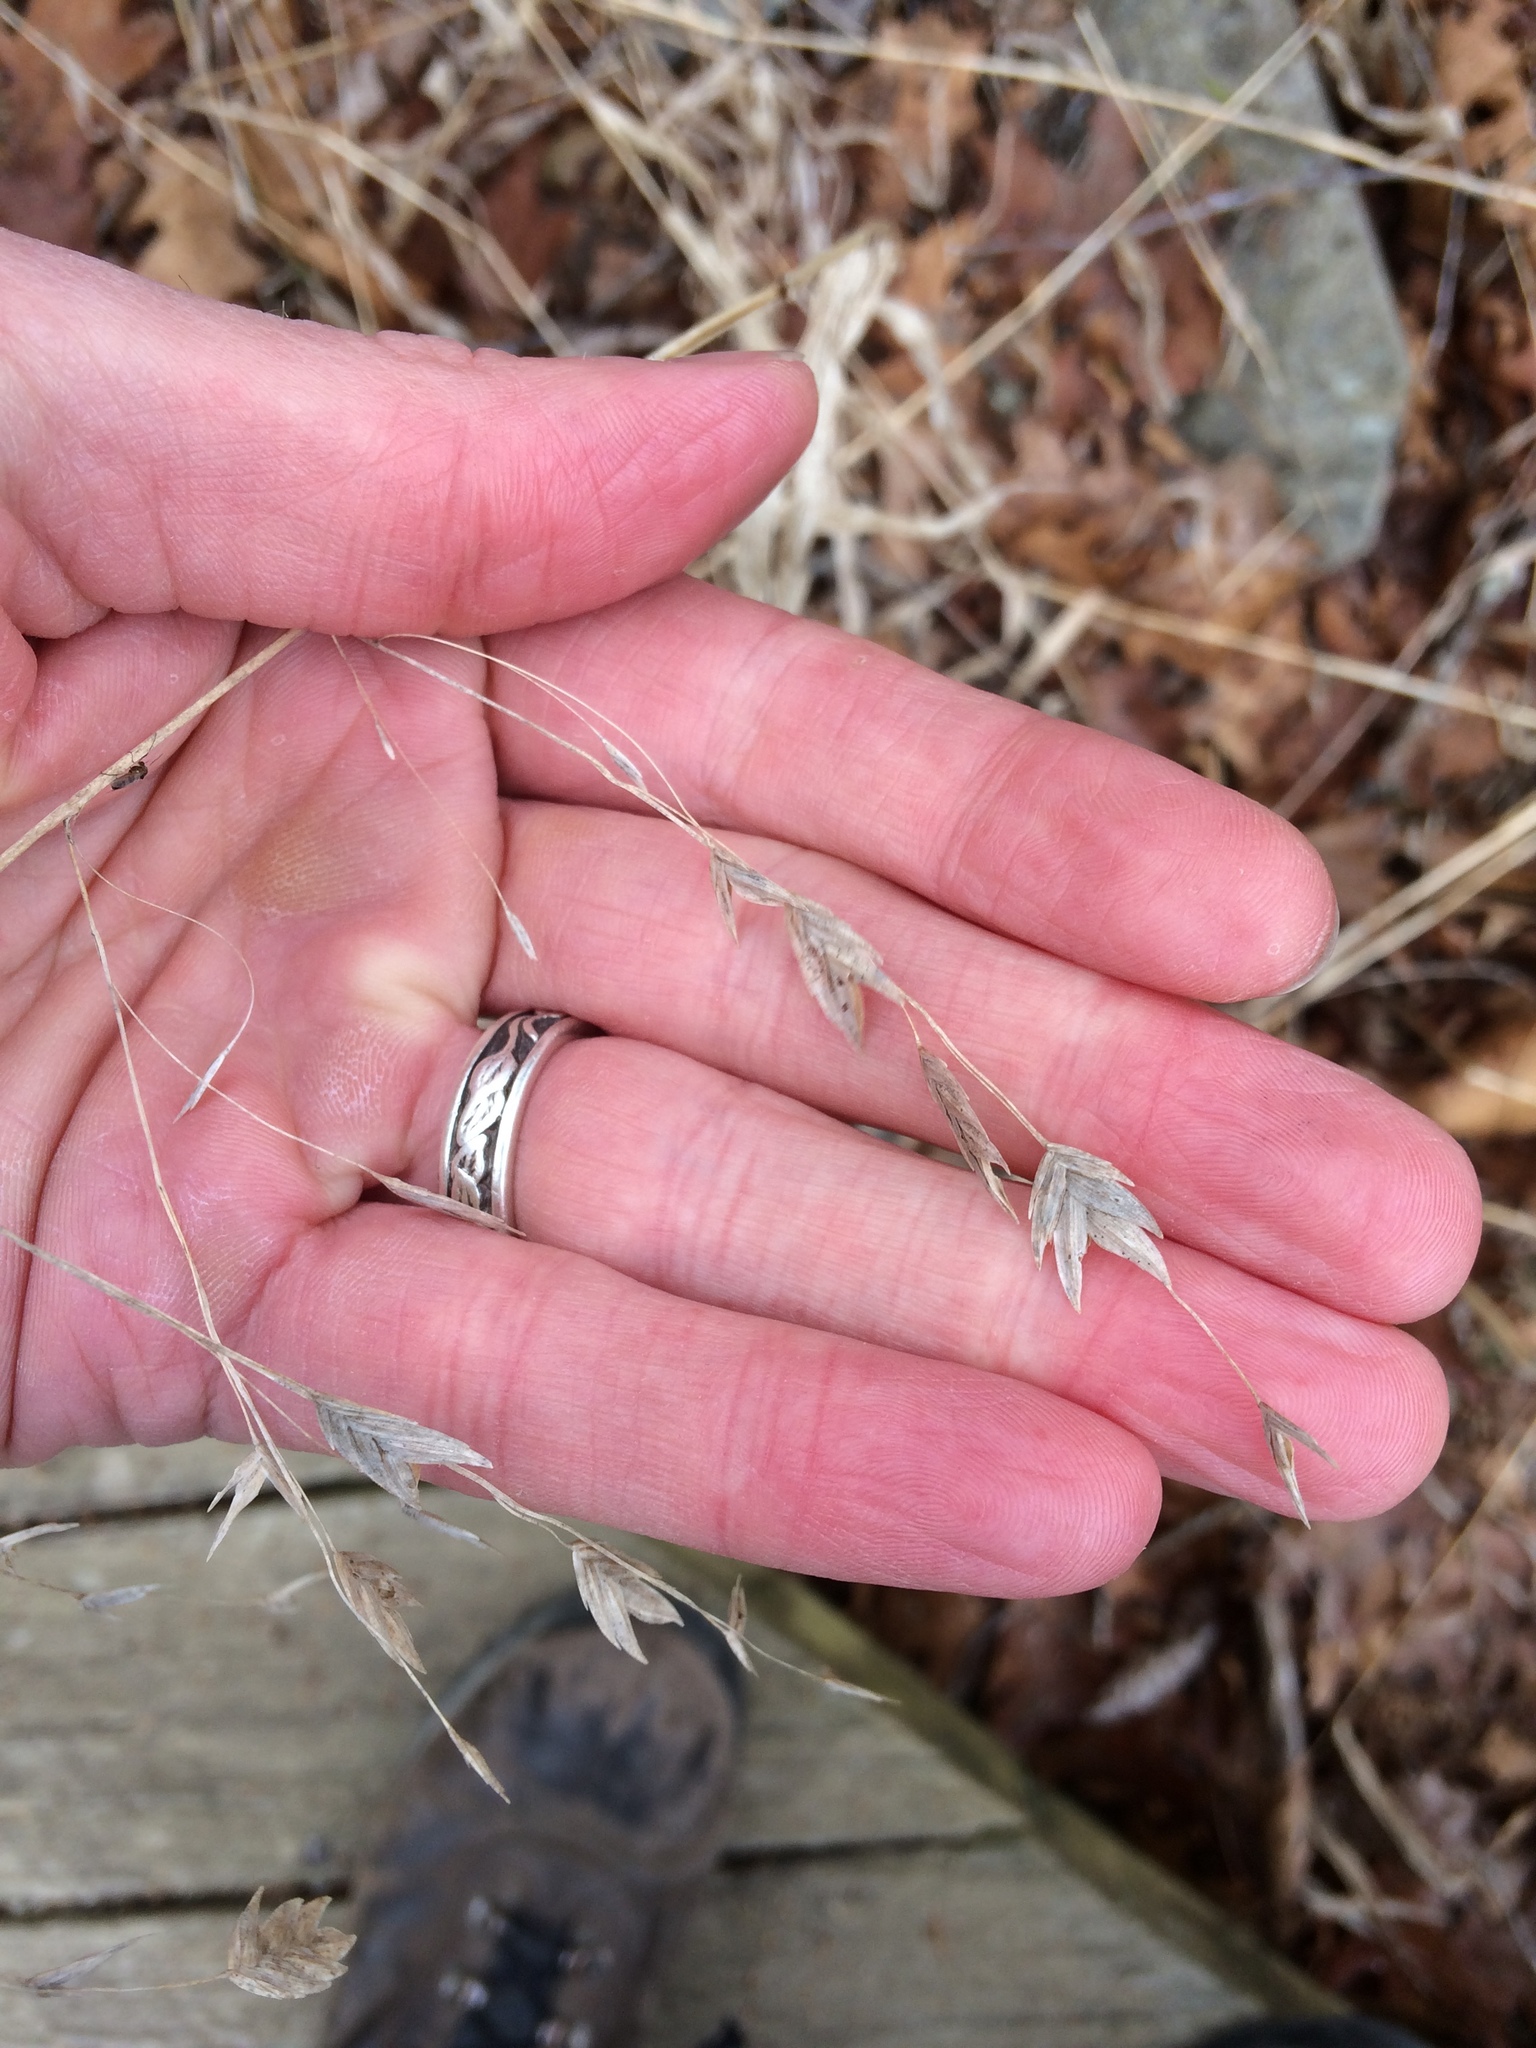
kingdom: Plantae
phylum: Tracheophyta
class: Liliopsida
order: Poales
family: Poaceae
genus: Chasmanthium
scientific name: Chasmanthium latifolium
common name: Broad-leaved chasmanthium
